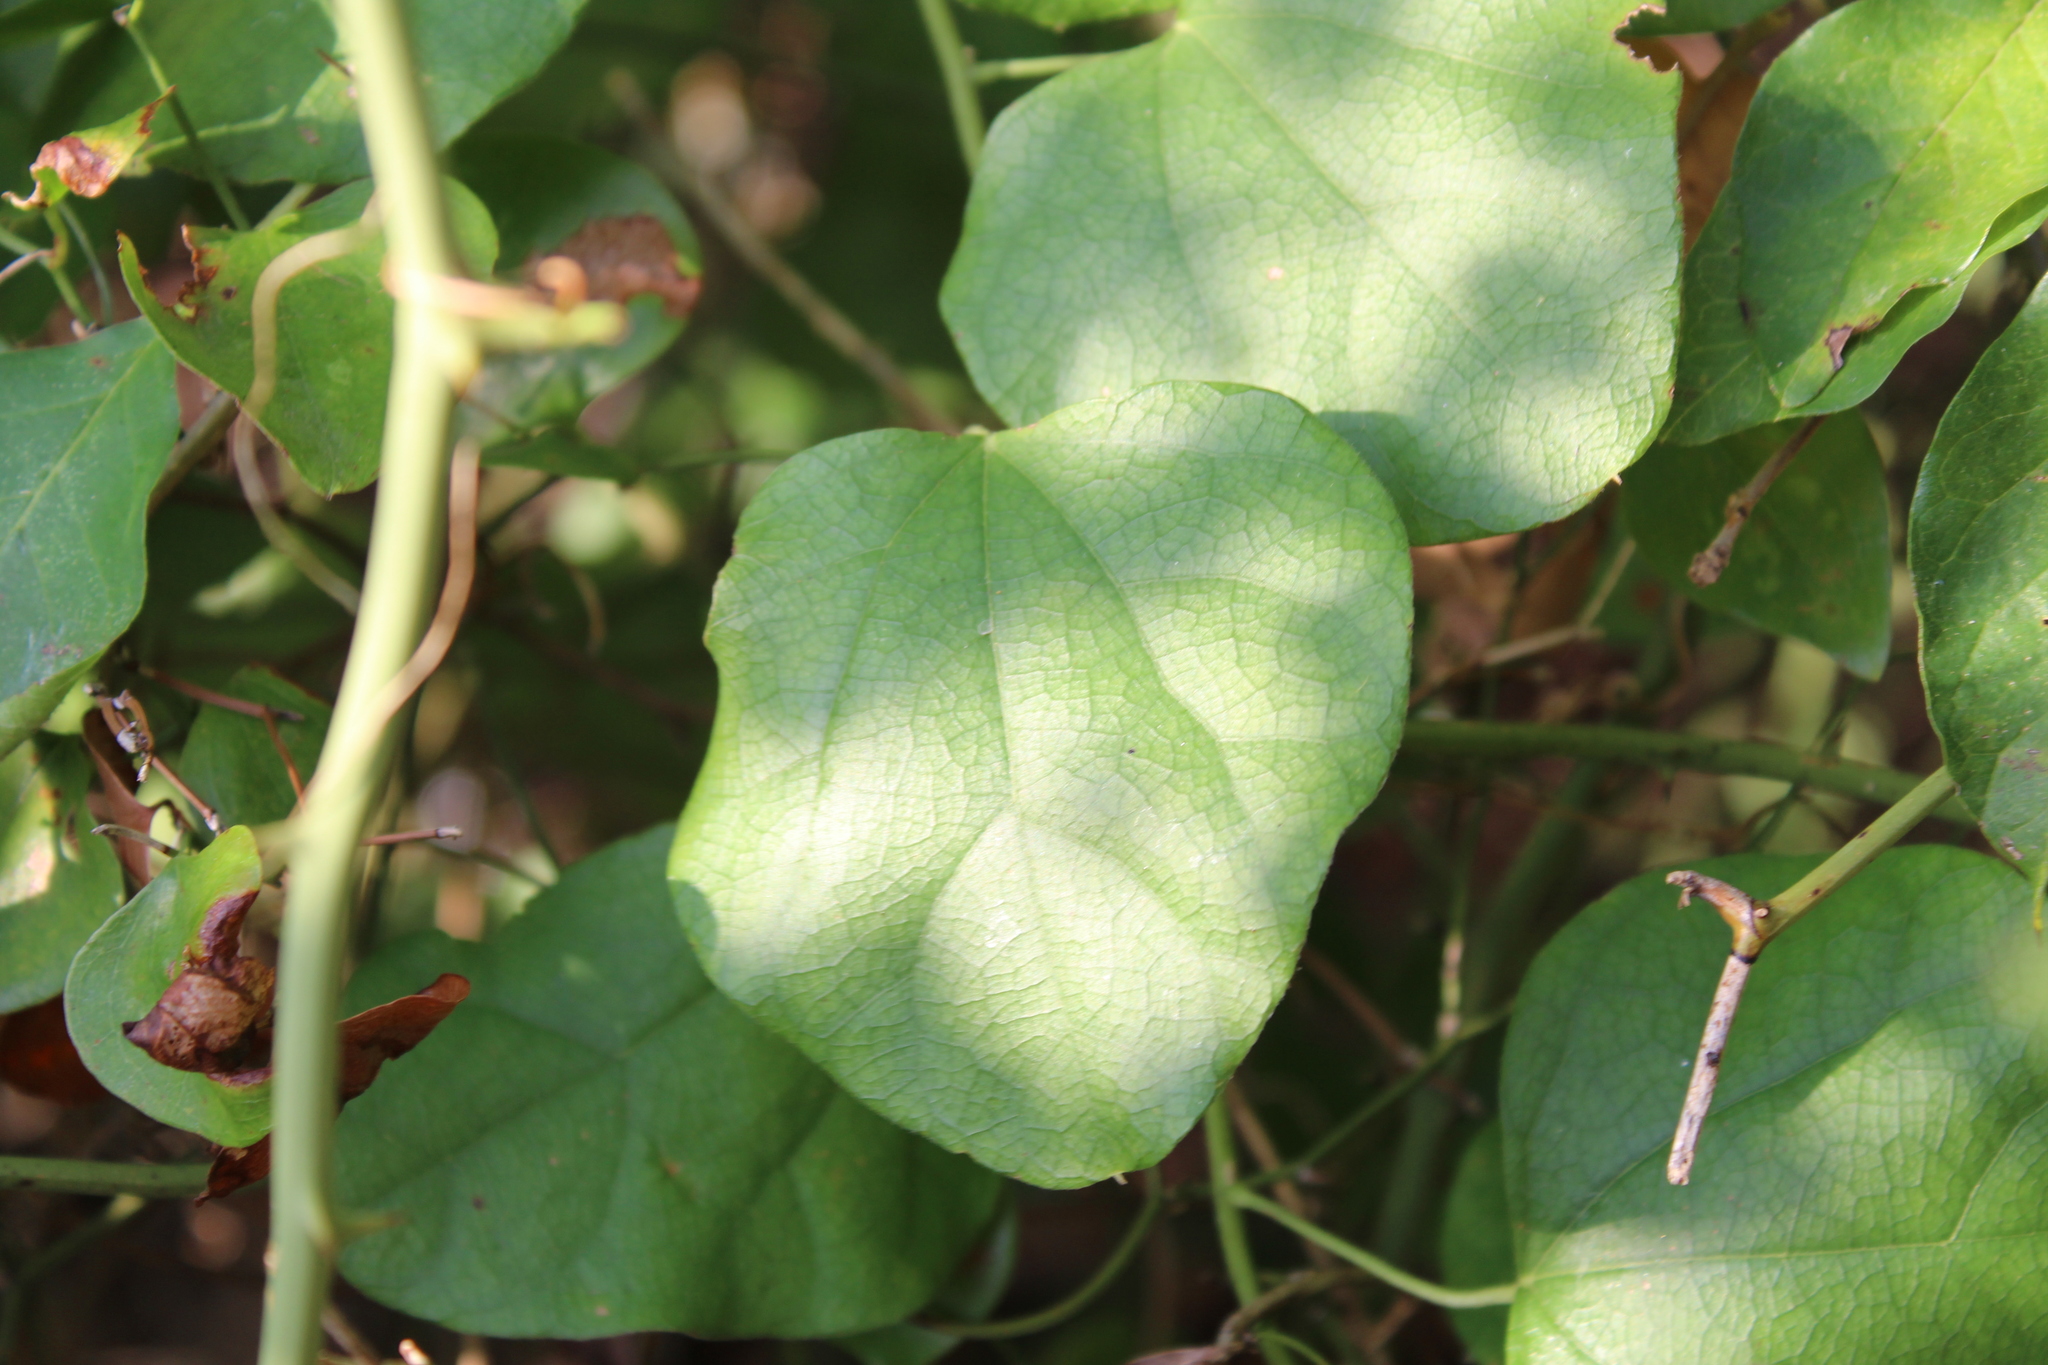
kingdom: Plantae
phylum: Tracheophyta
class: Magnoliopsida
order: Ranunculales
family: Menispermaceae
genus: Cocculus
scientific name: Cocculus carolinus
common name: Carolina moonseed
